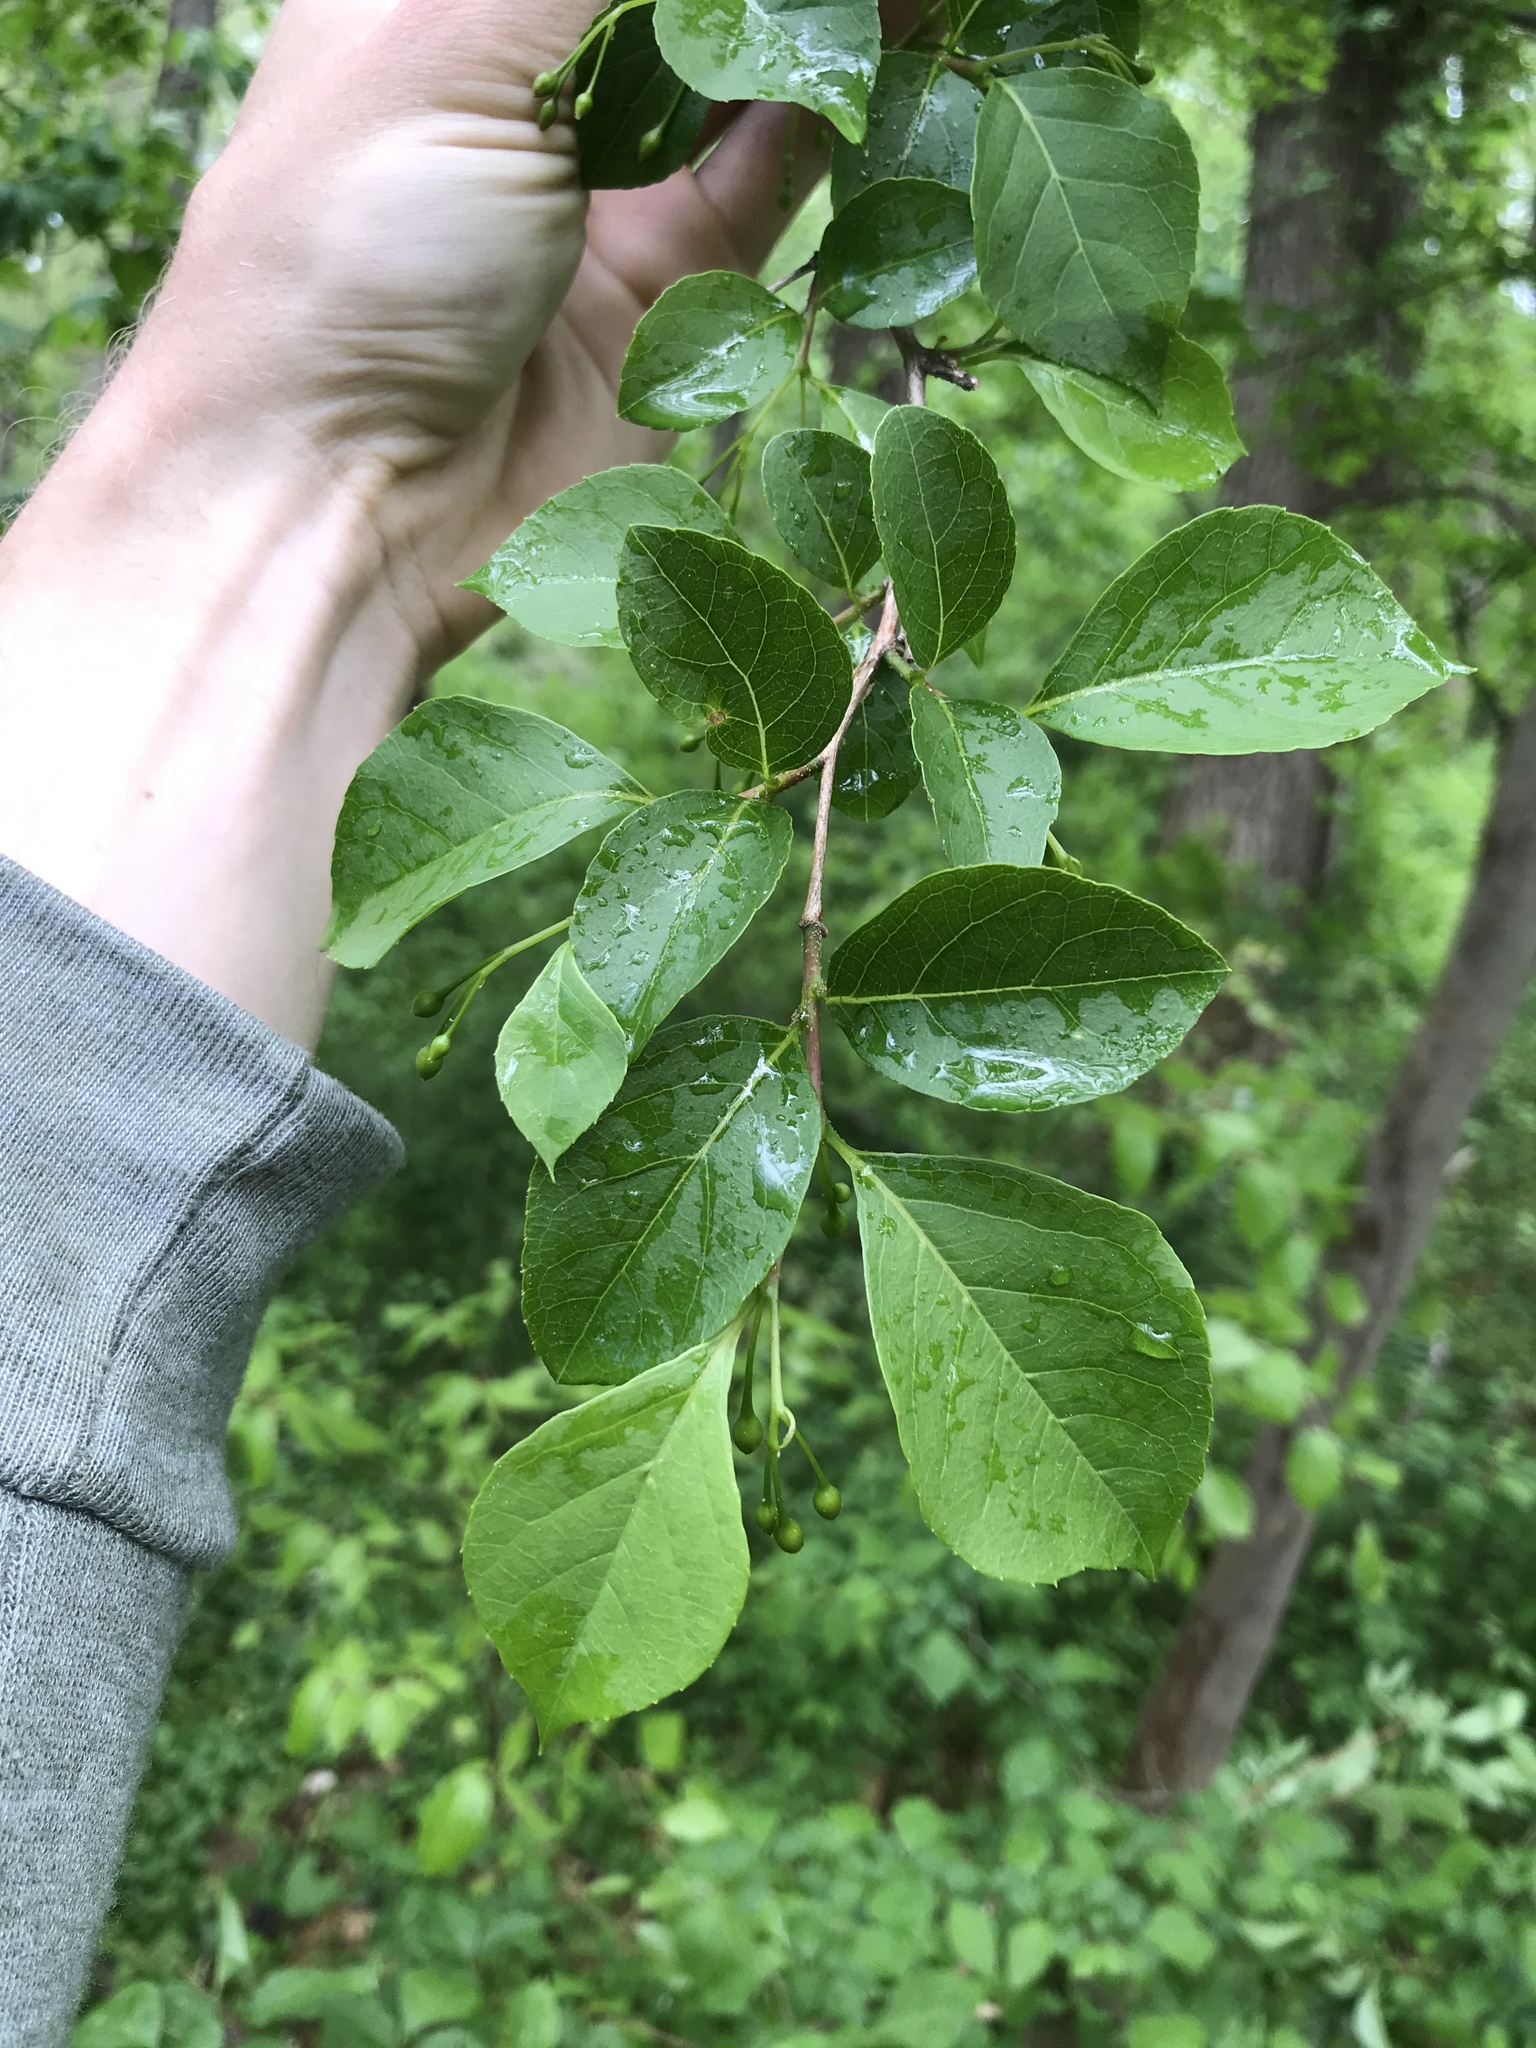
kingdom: Plantae
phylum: Tracheophyta
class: Magnoliopsida
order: Ericales
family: Styracaceae
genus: Styrax
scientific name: Styrax japonicus
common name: Japanese snowbell
